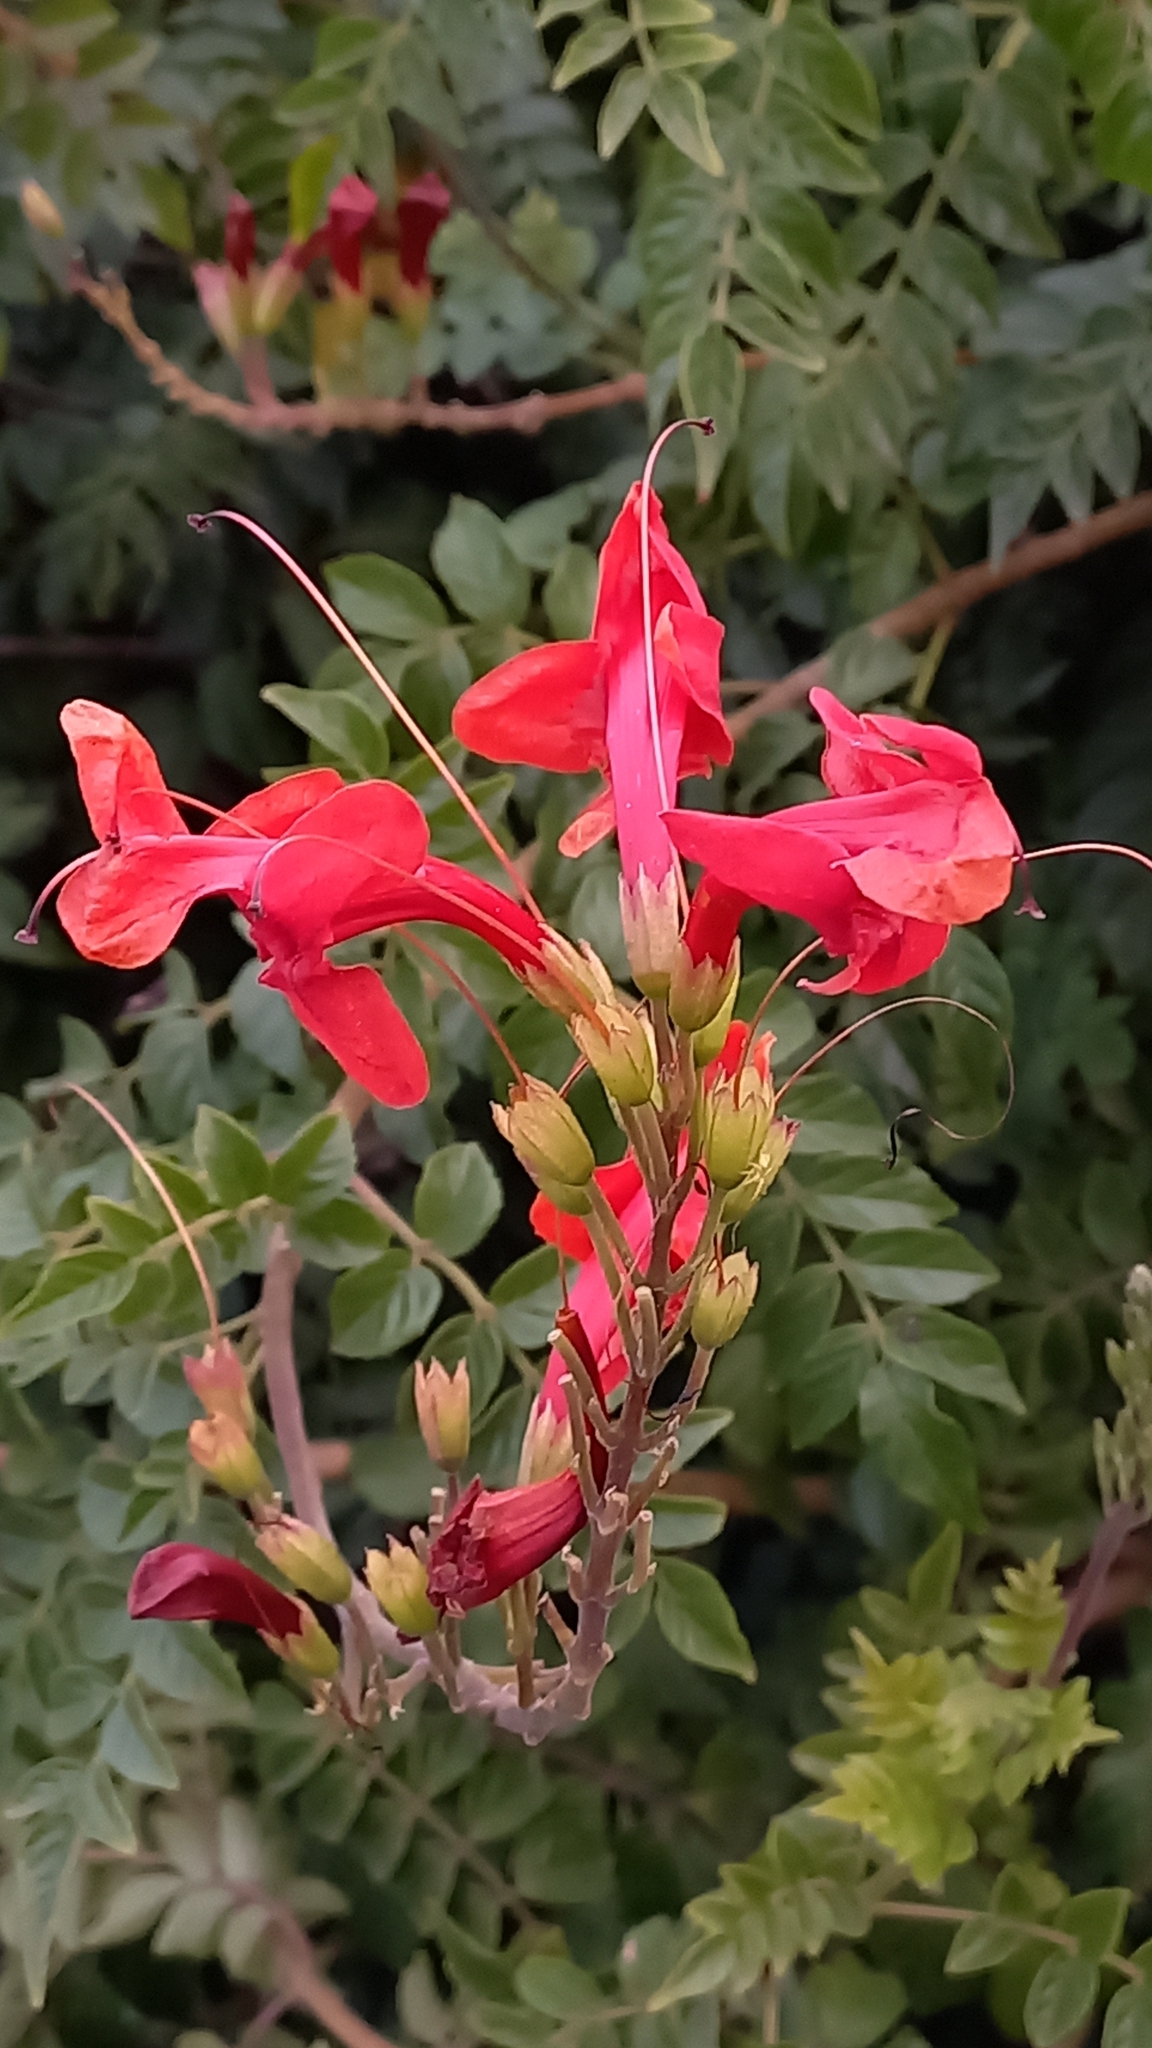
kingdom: Plantae
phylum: Tracheophyta
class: Magnoliopsida
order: Lamiales
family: Bignoniaceae
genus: Tecomaria
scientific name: Tecomaria capensis
